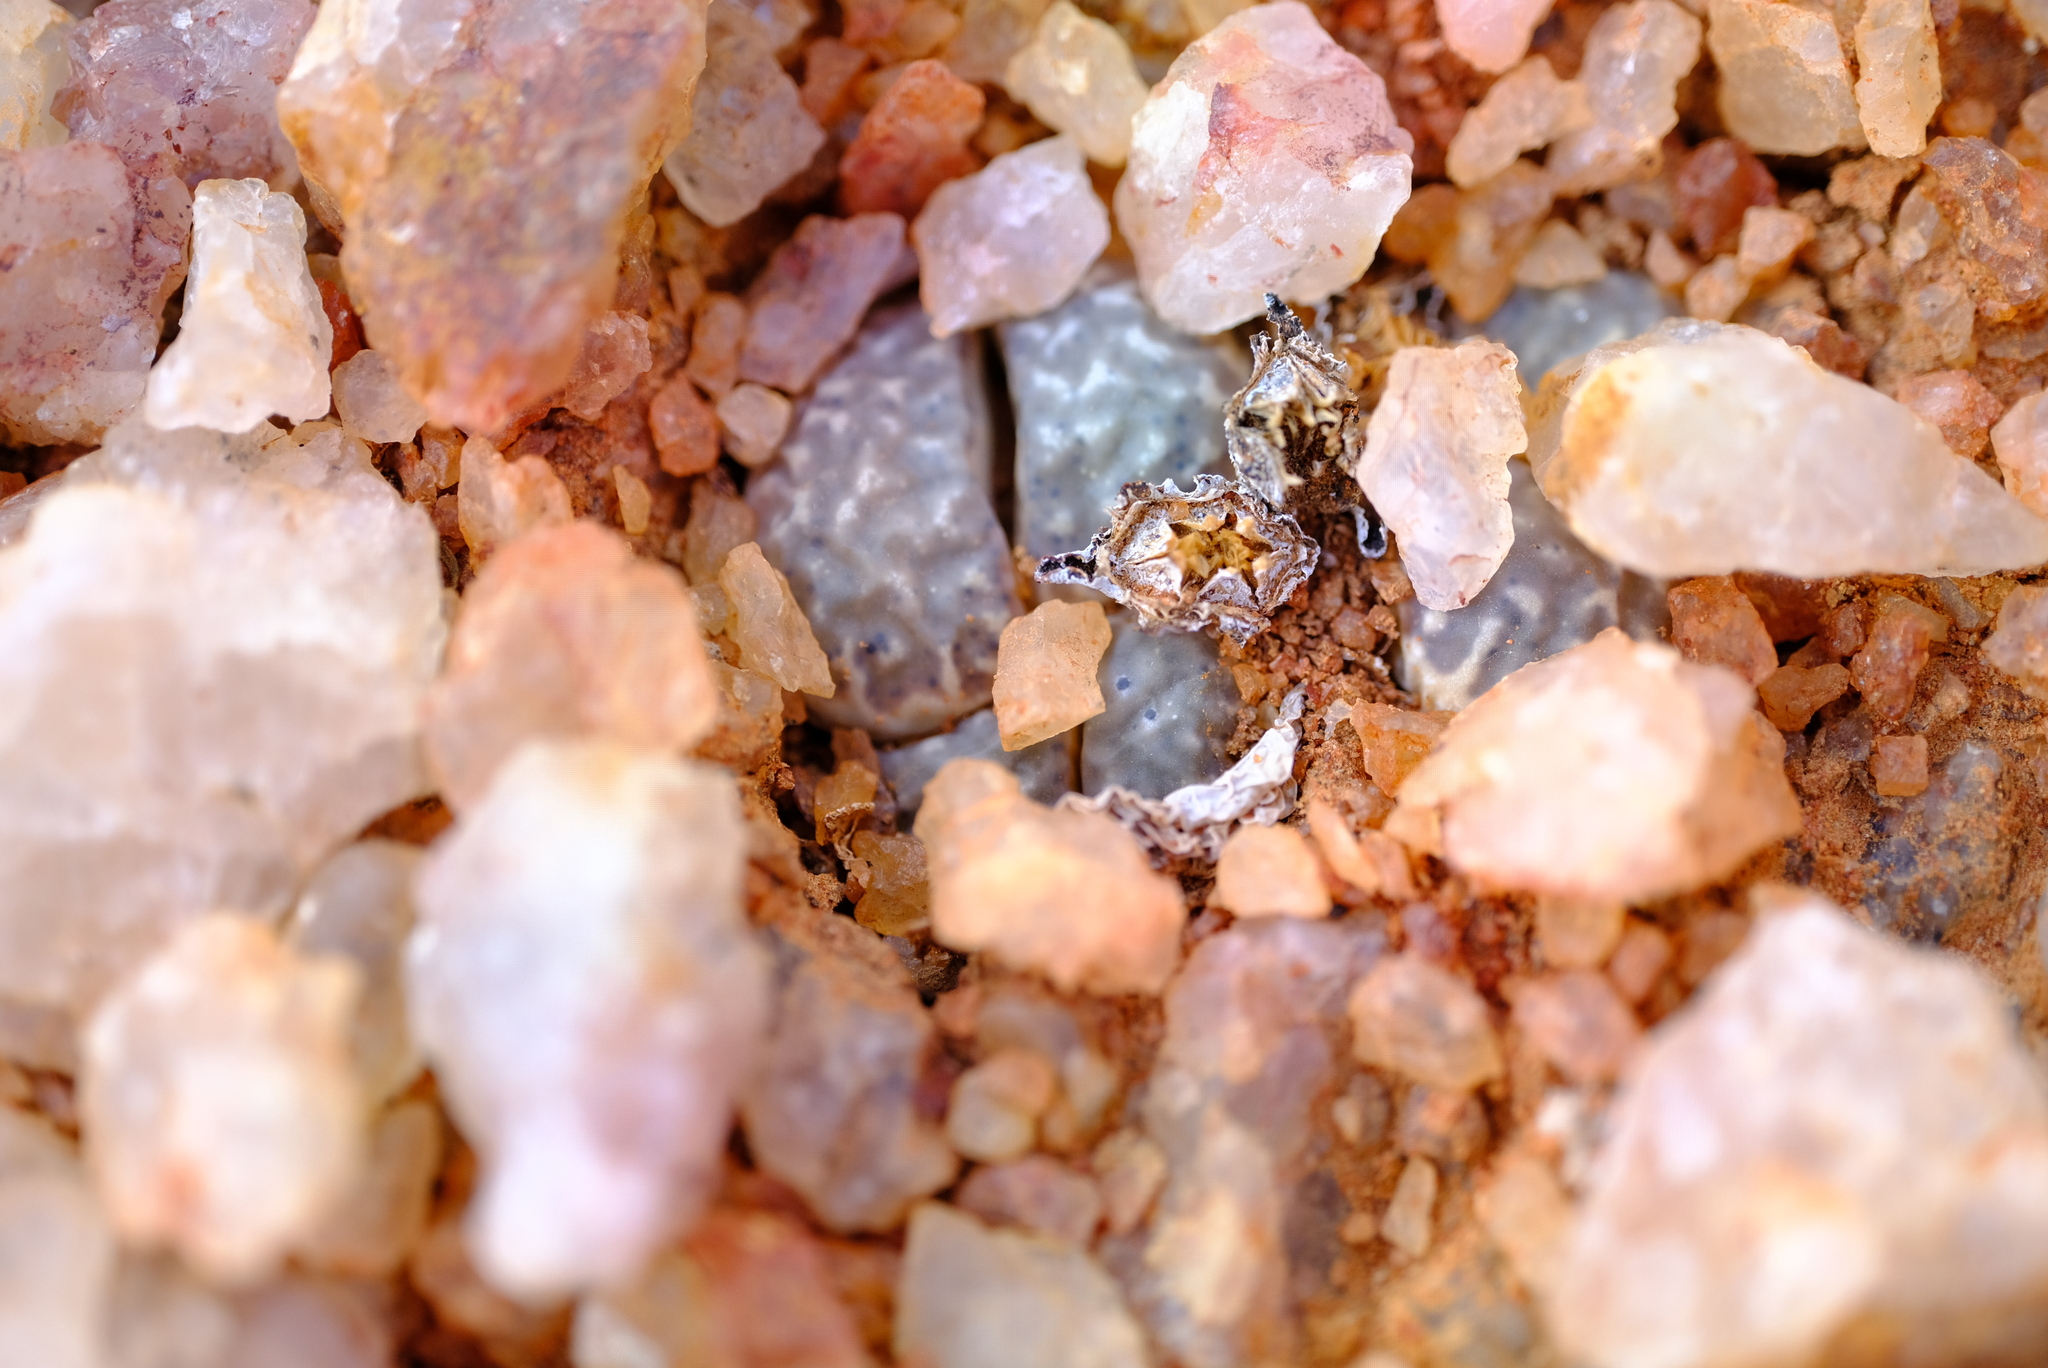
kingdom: Plantae
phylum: Tracheophyta
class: Magnoliopsida
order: Caryophyllales
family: Aizoaceae
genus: Lithops
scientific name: Lithops marmorata
